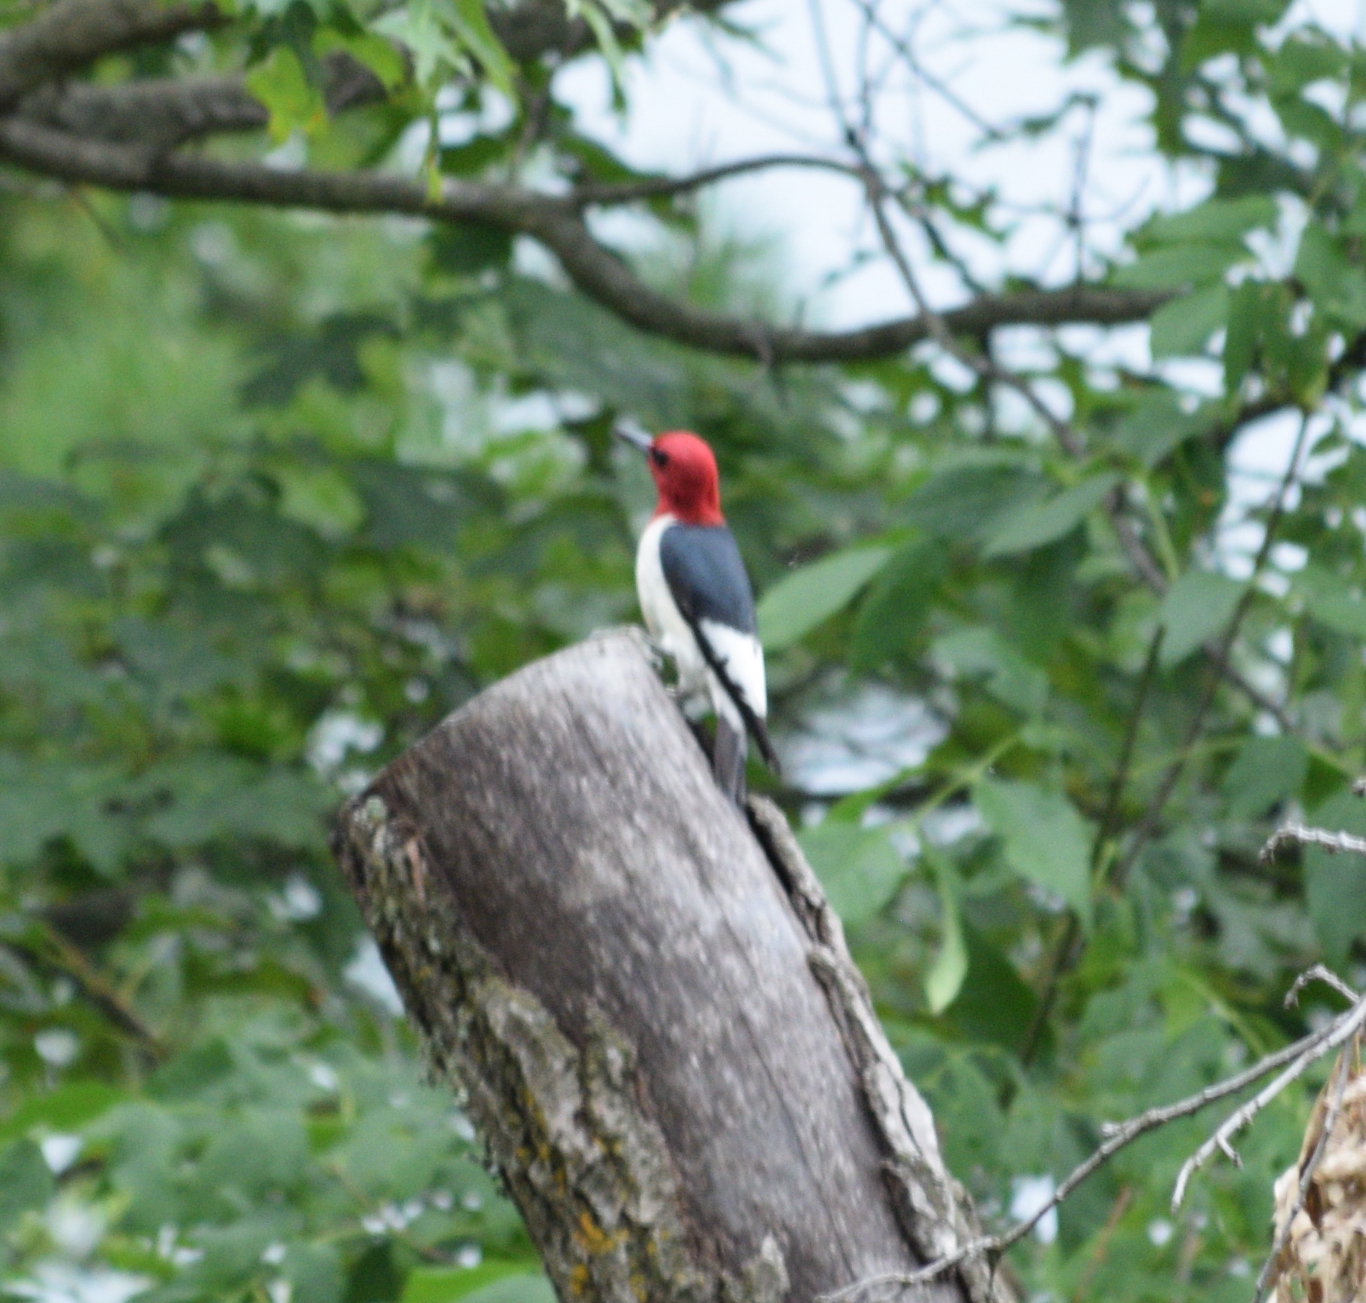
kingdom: Animalia
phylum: Chordata
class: Aves
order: Piciformes
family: Picidae
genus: Melanerpes
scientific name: Melanerpes erythrocephalus
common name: Red-headed woodpecker
